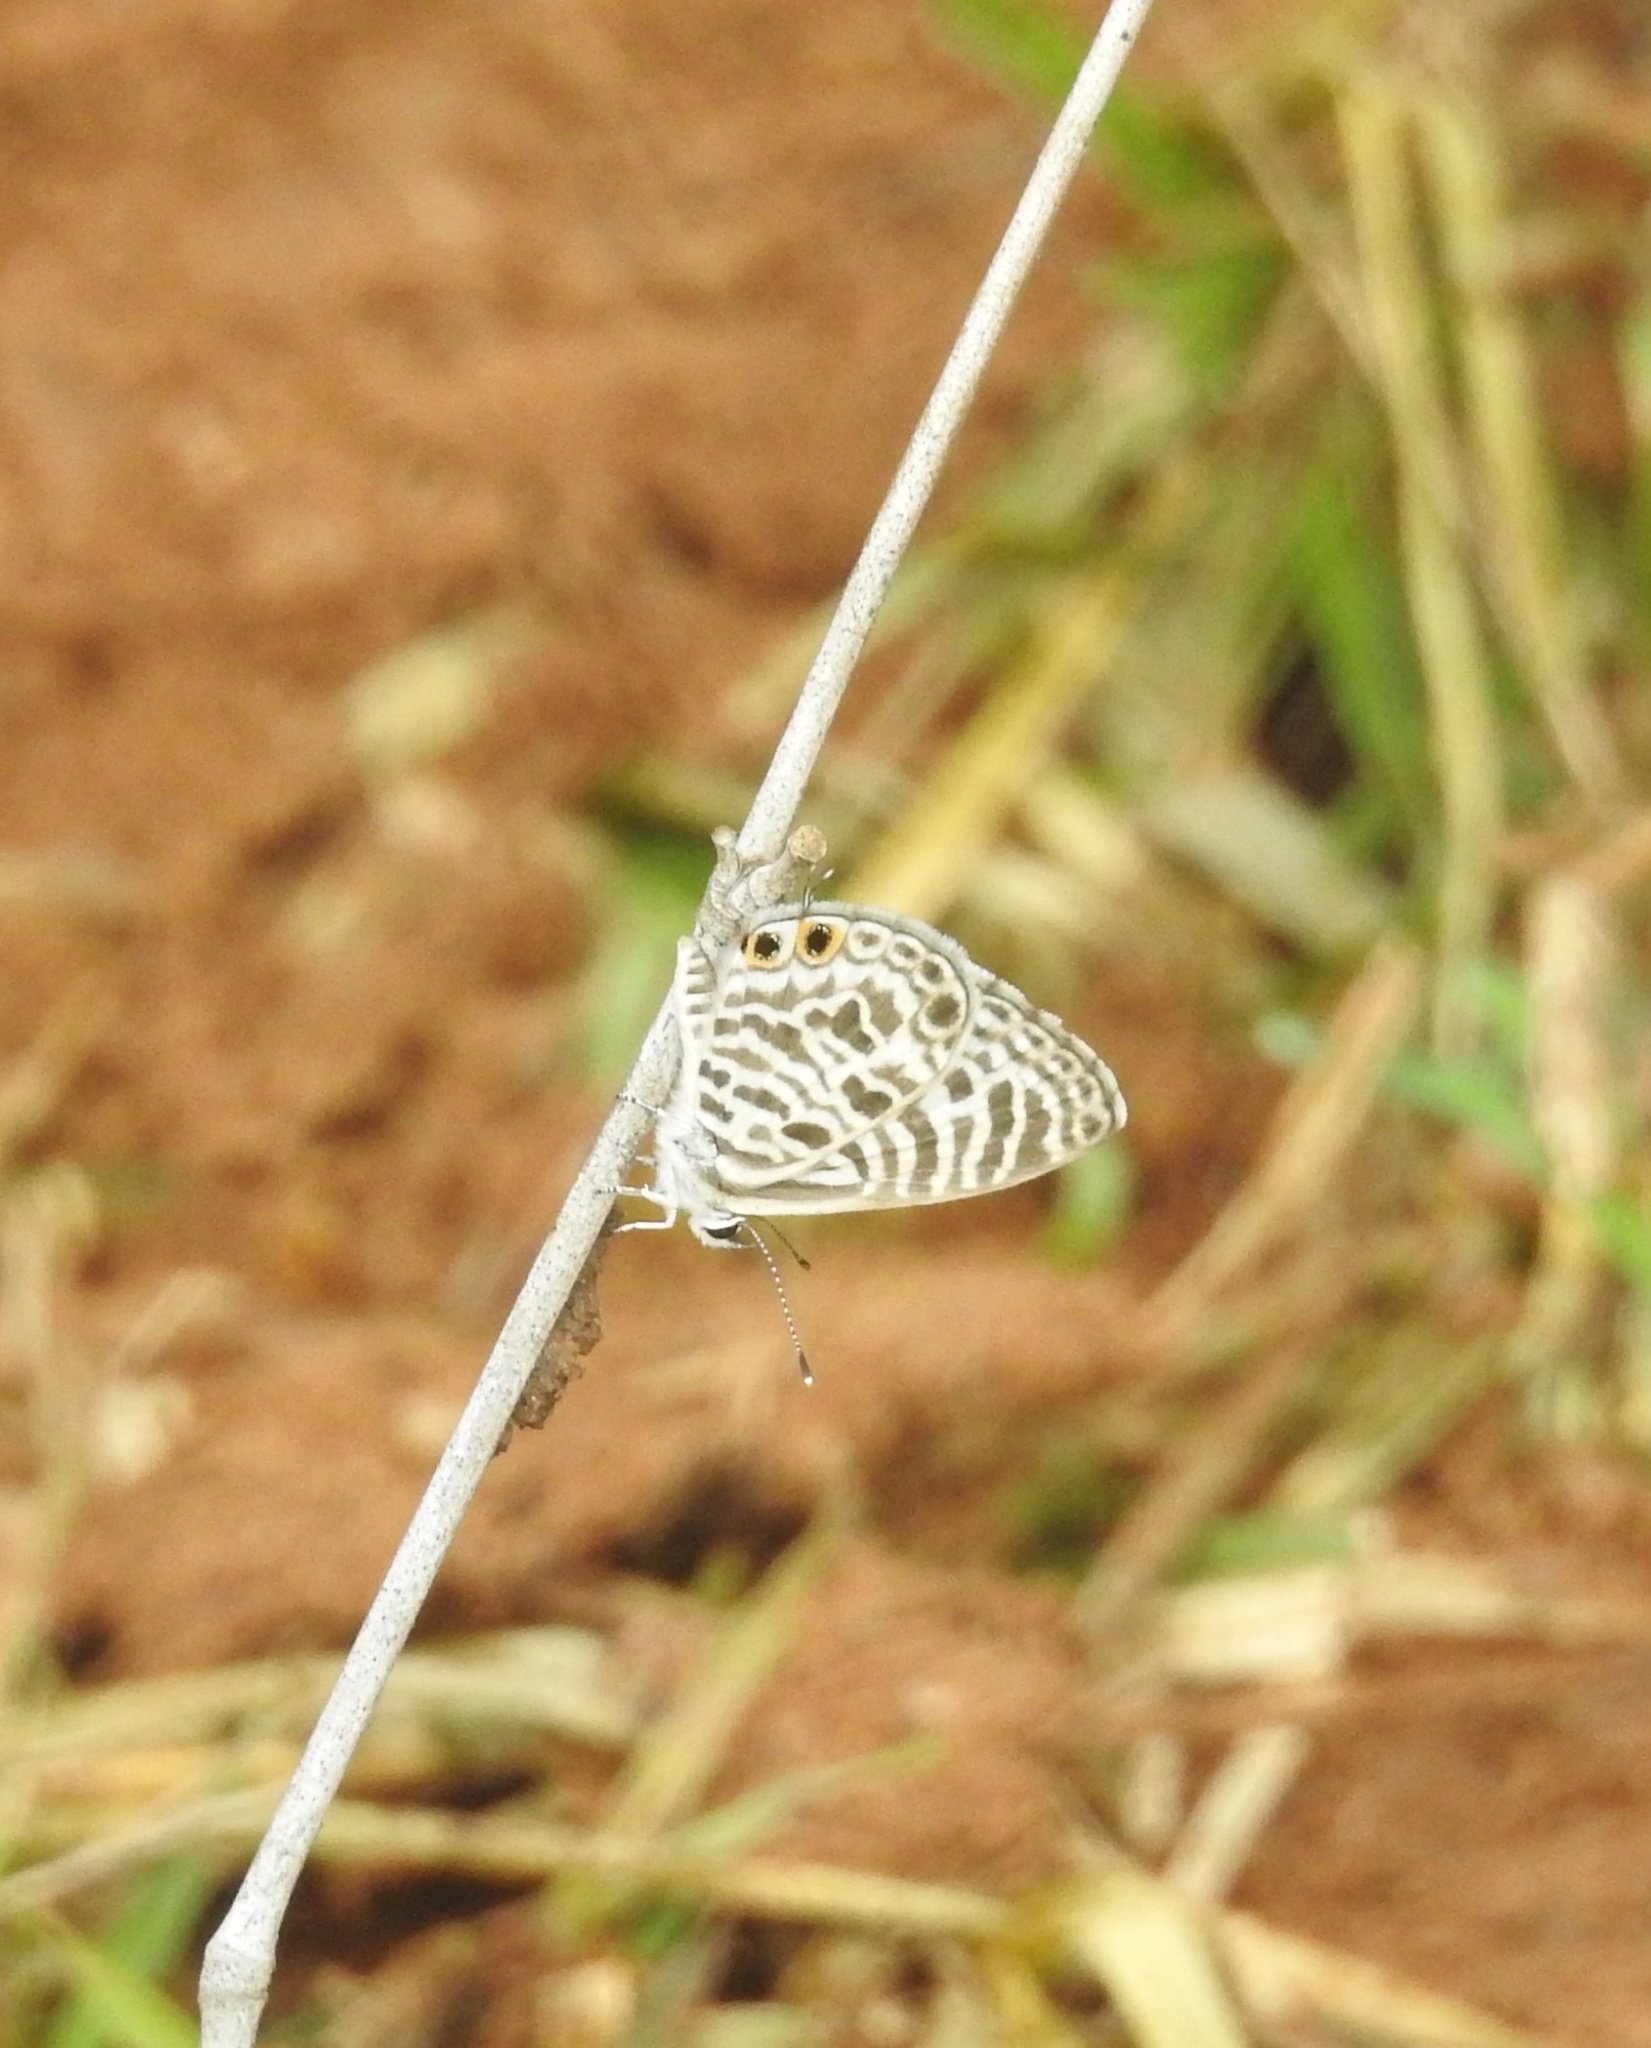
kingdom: Animalia
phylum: Arthropoda
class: Insecta
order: Lepidoptera
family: Lycaenidae
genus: Leptotes
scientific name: Leptotes plinius
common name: Zebra blue
